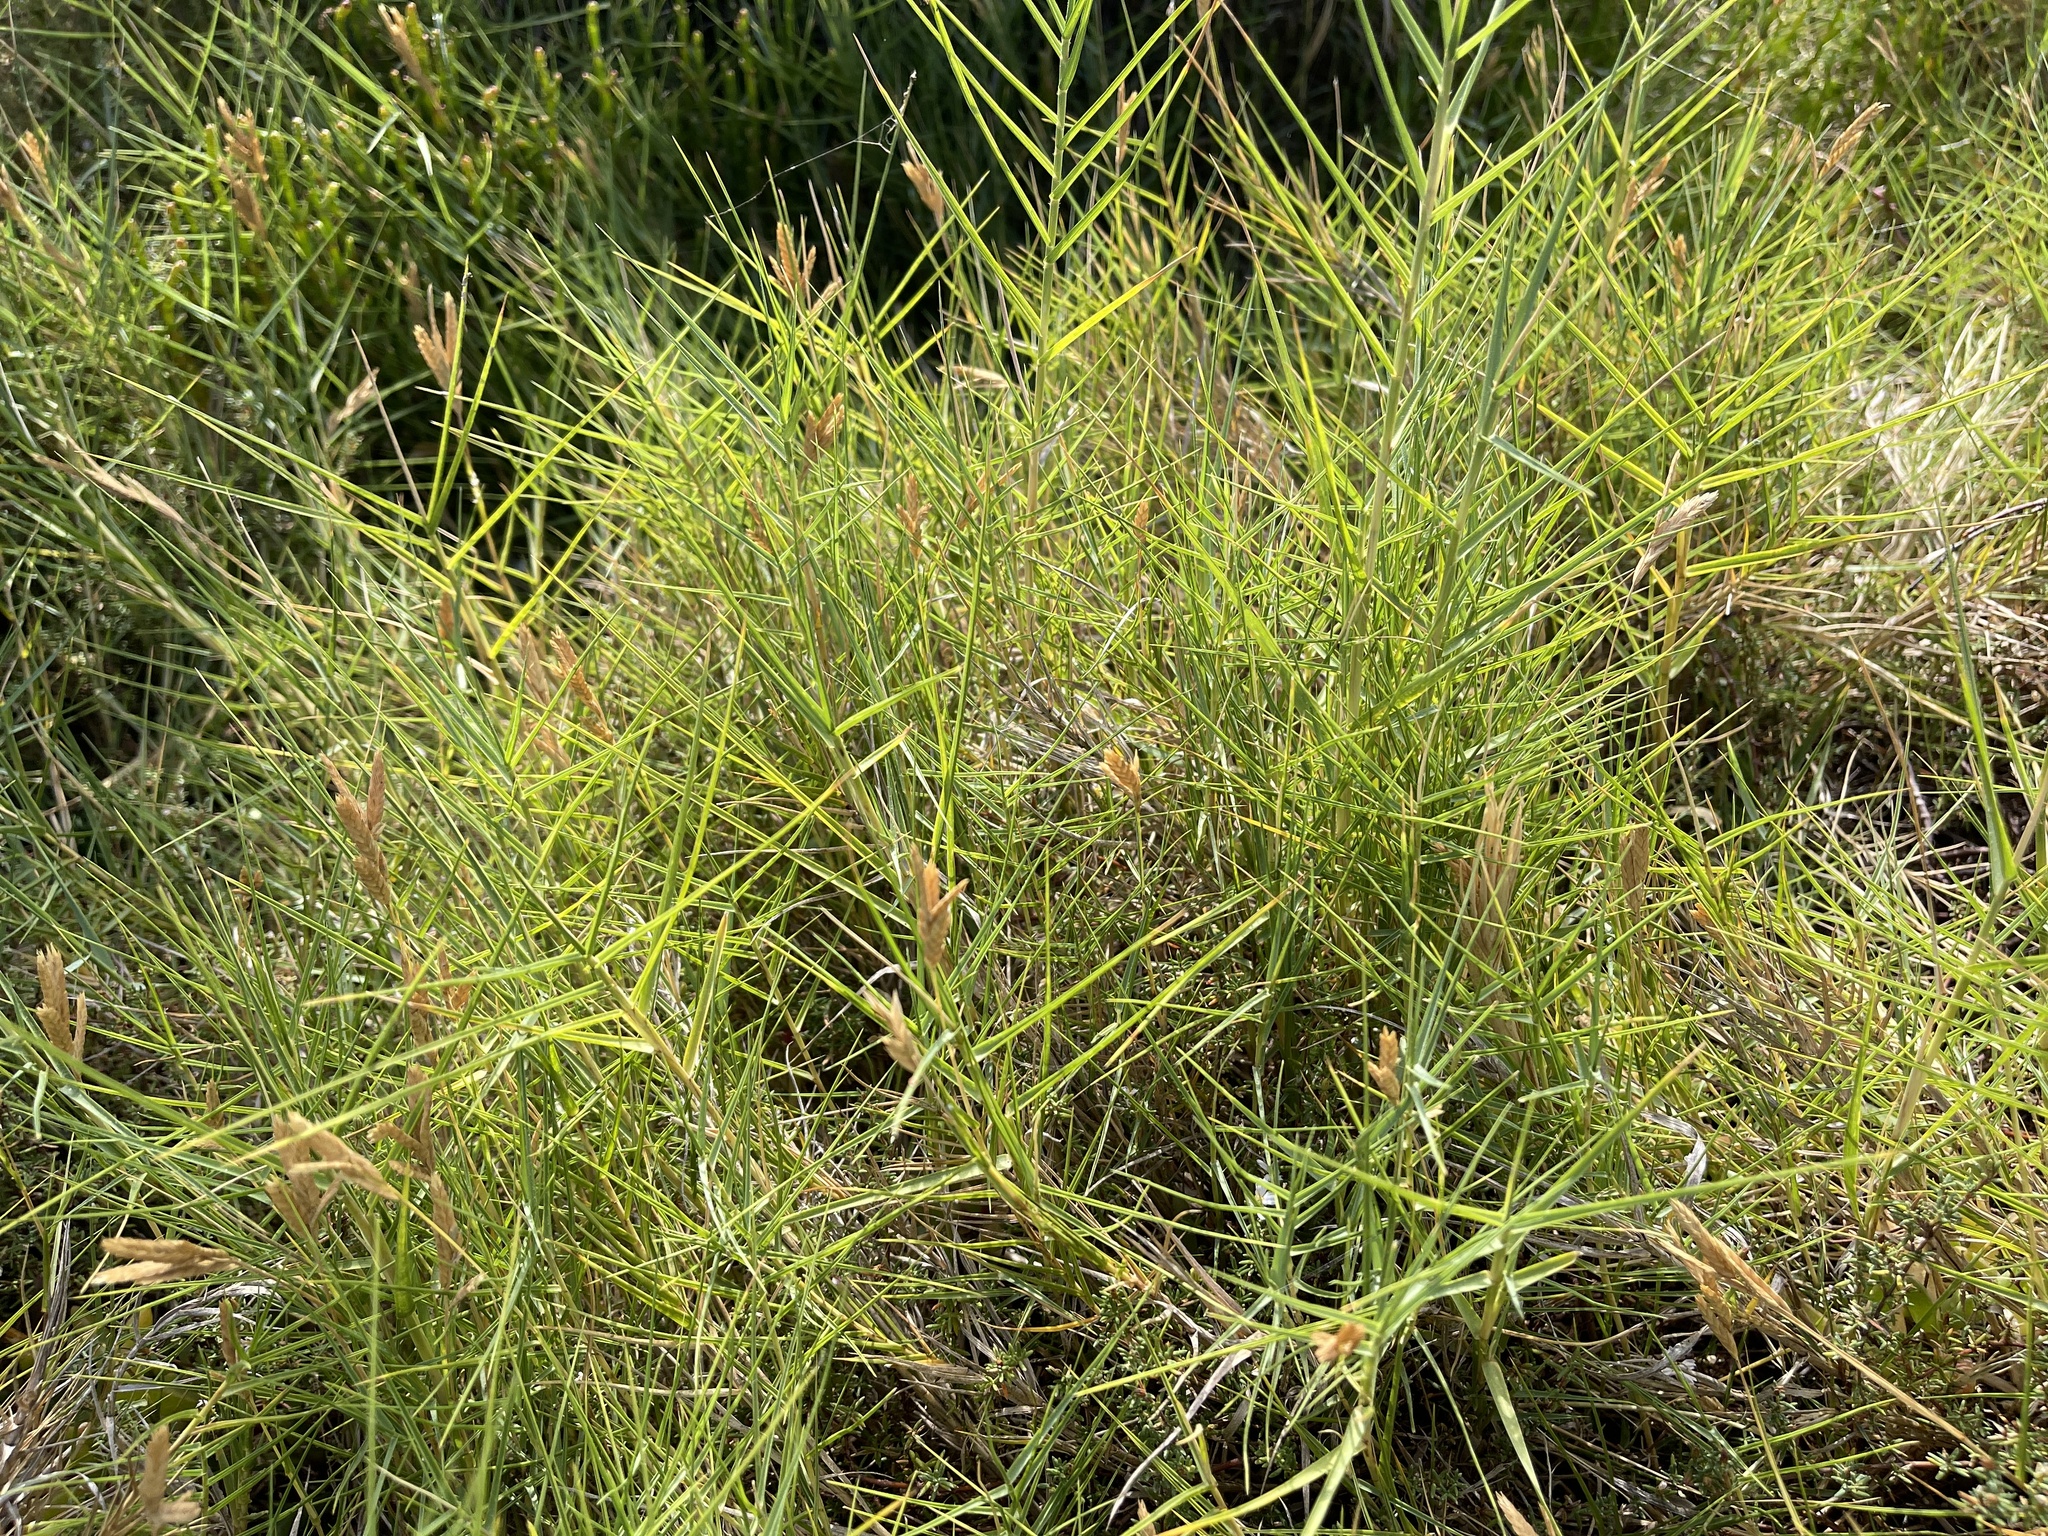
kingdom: Plantae
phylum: Tracheophyta
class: Liliopsida
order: Poales
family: Poaceae
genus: Distichlis
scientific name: Distichlis distichophylla
